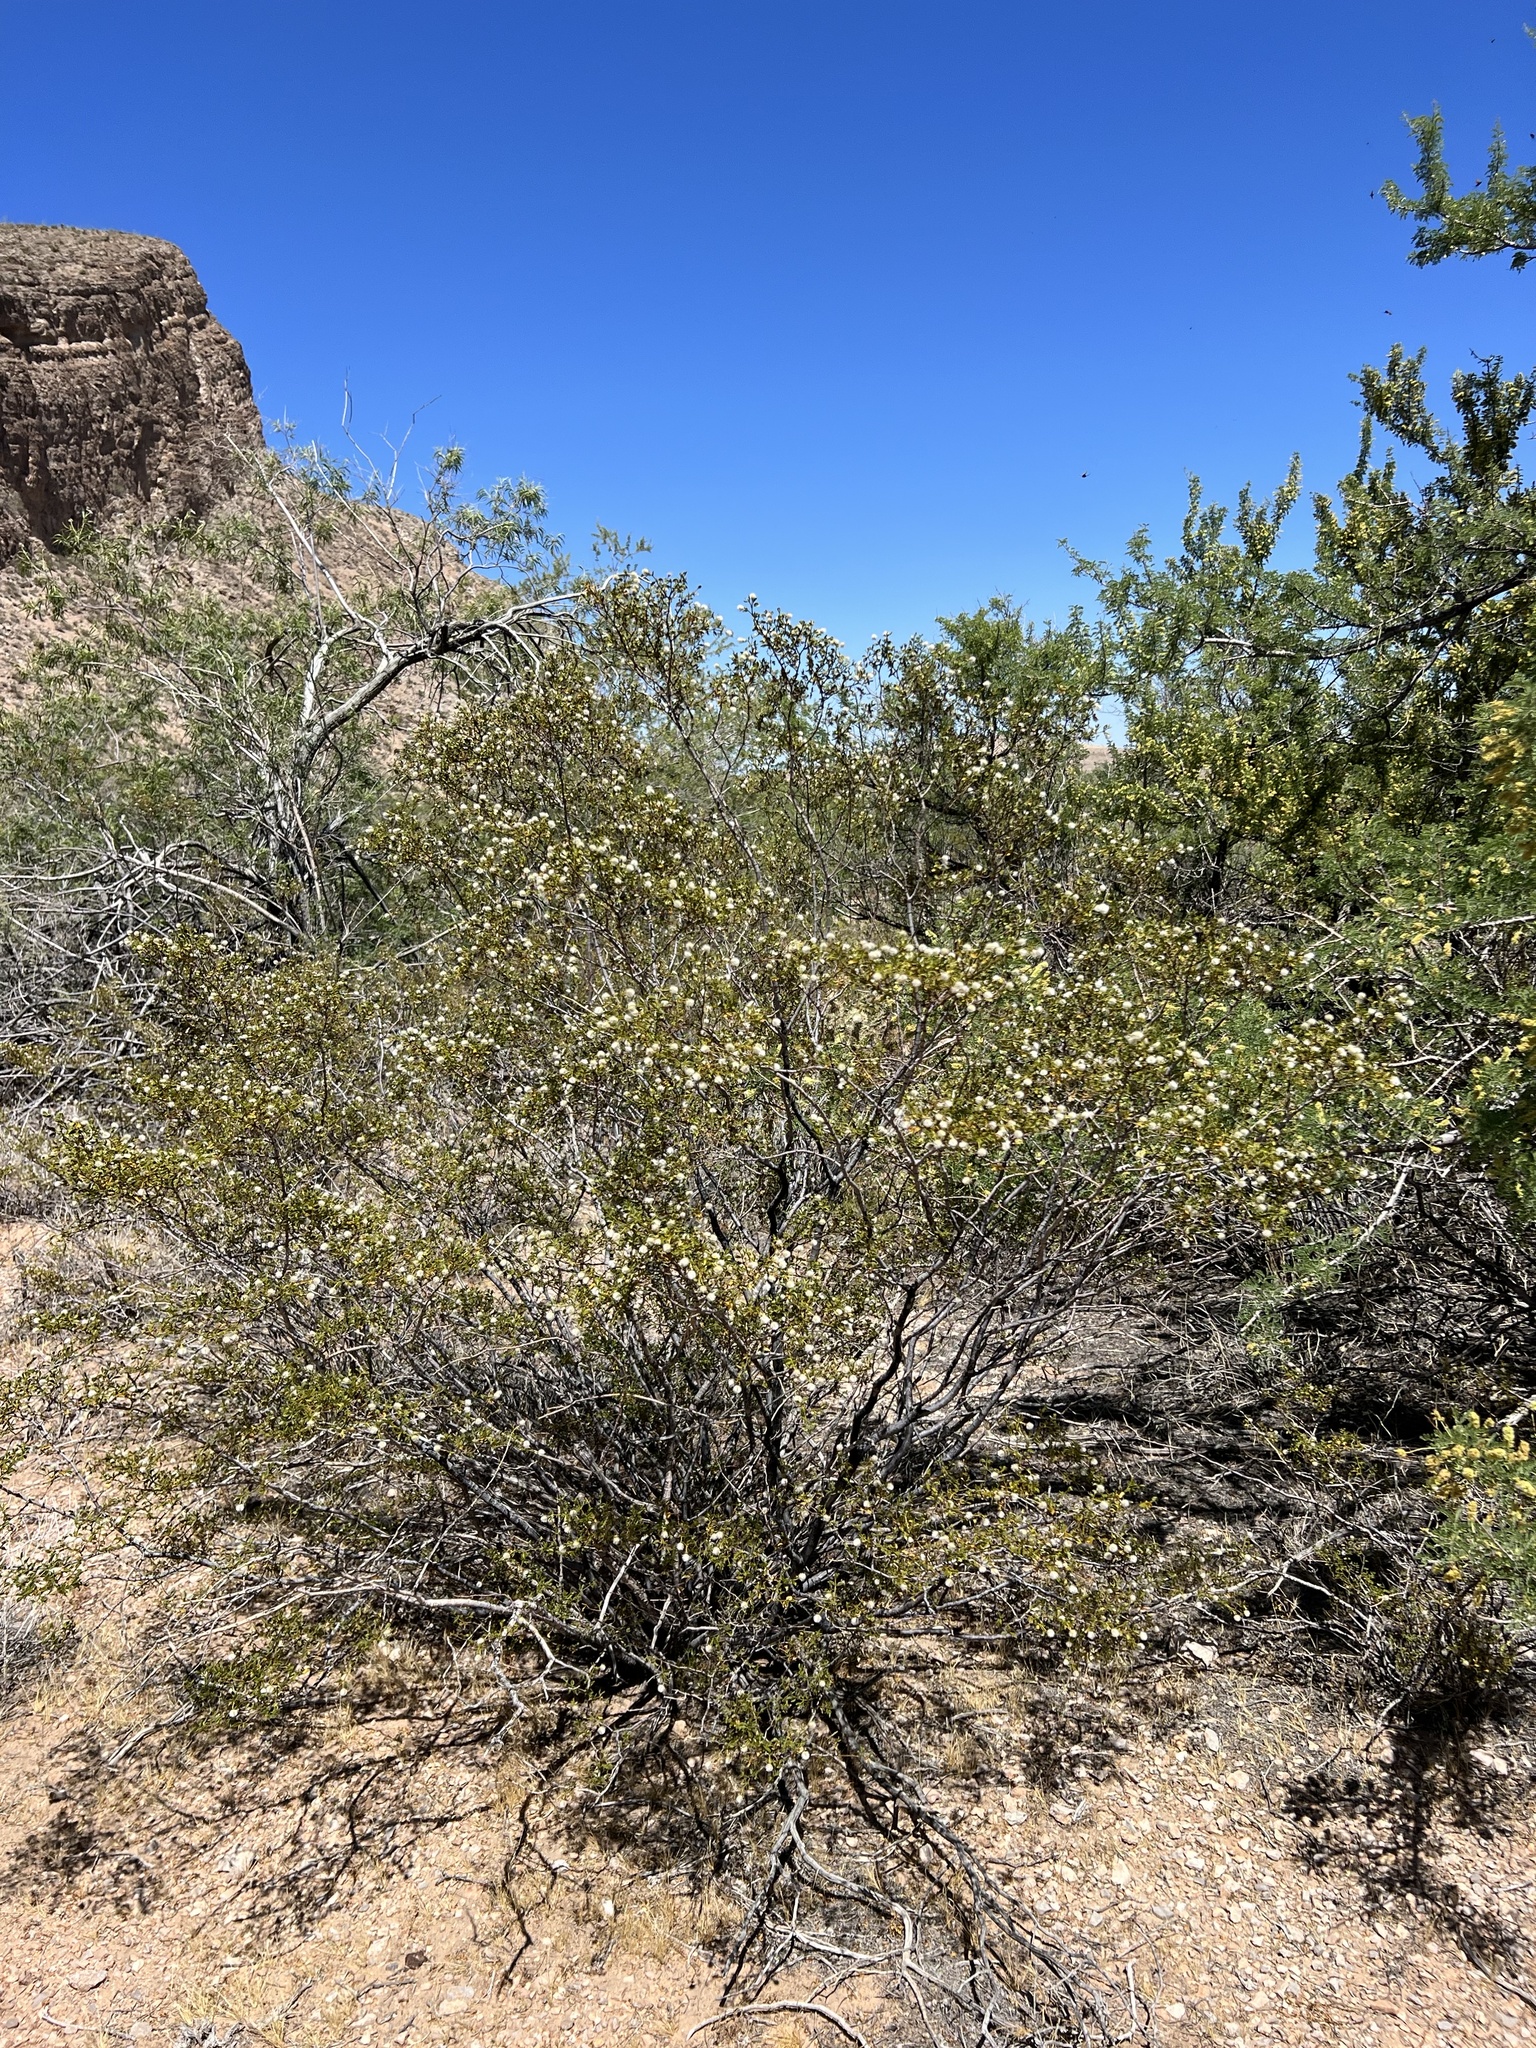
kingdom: Plantae
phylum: Tracheophyta
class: Magnoliopsida
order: Zygophyllales
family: Zygophyllaceae
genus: Larrea
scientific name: Larrea tridentata
